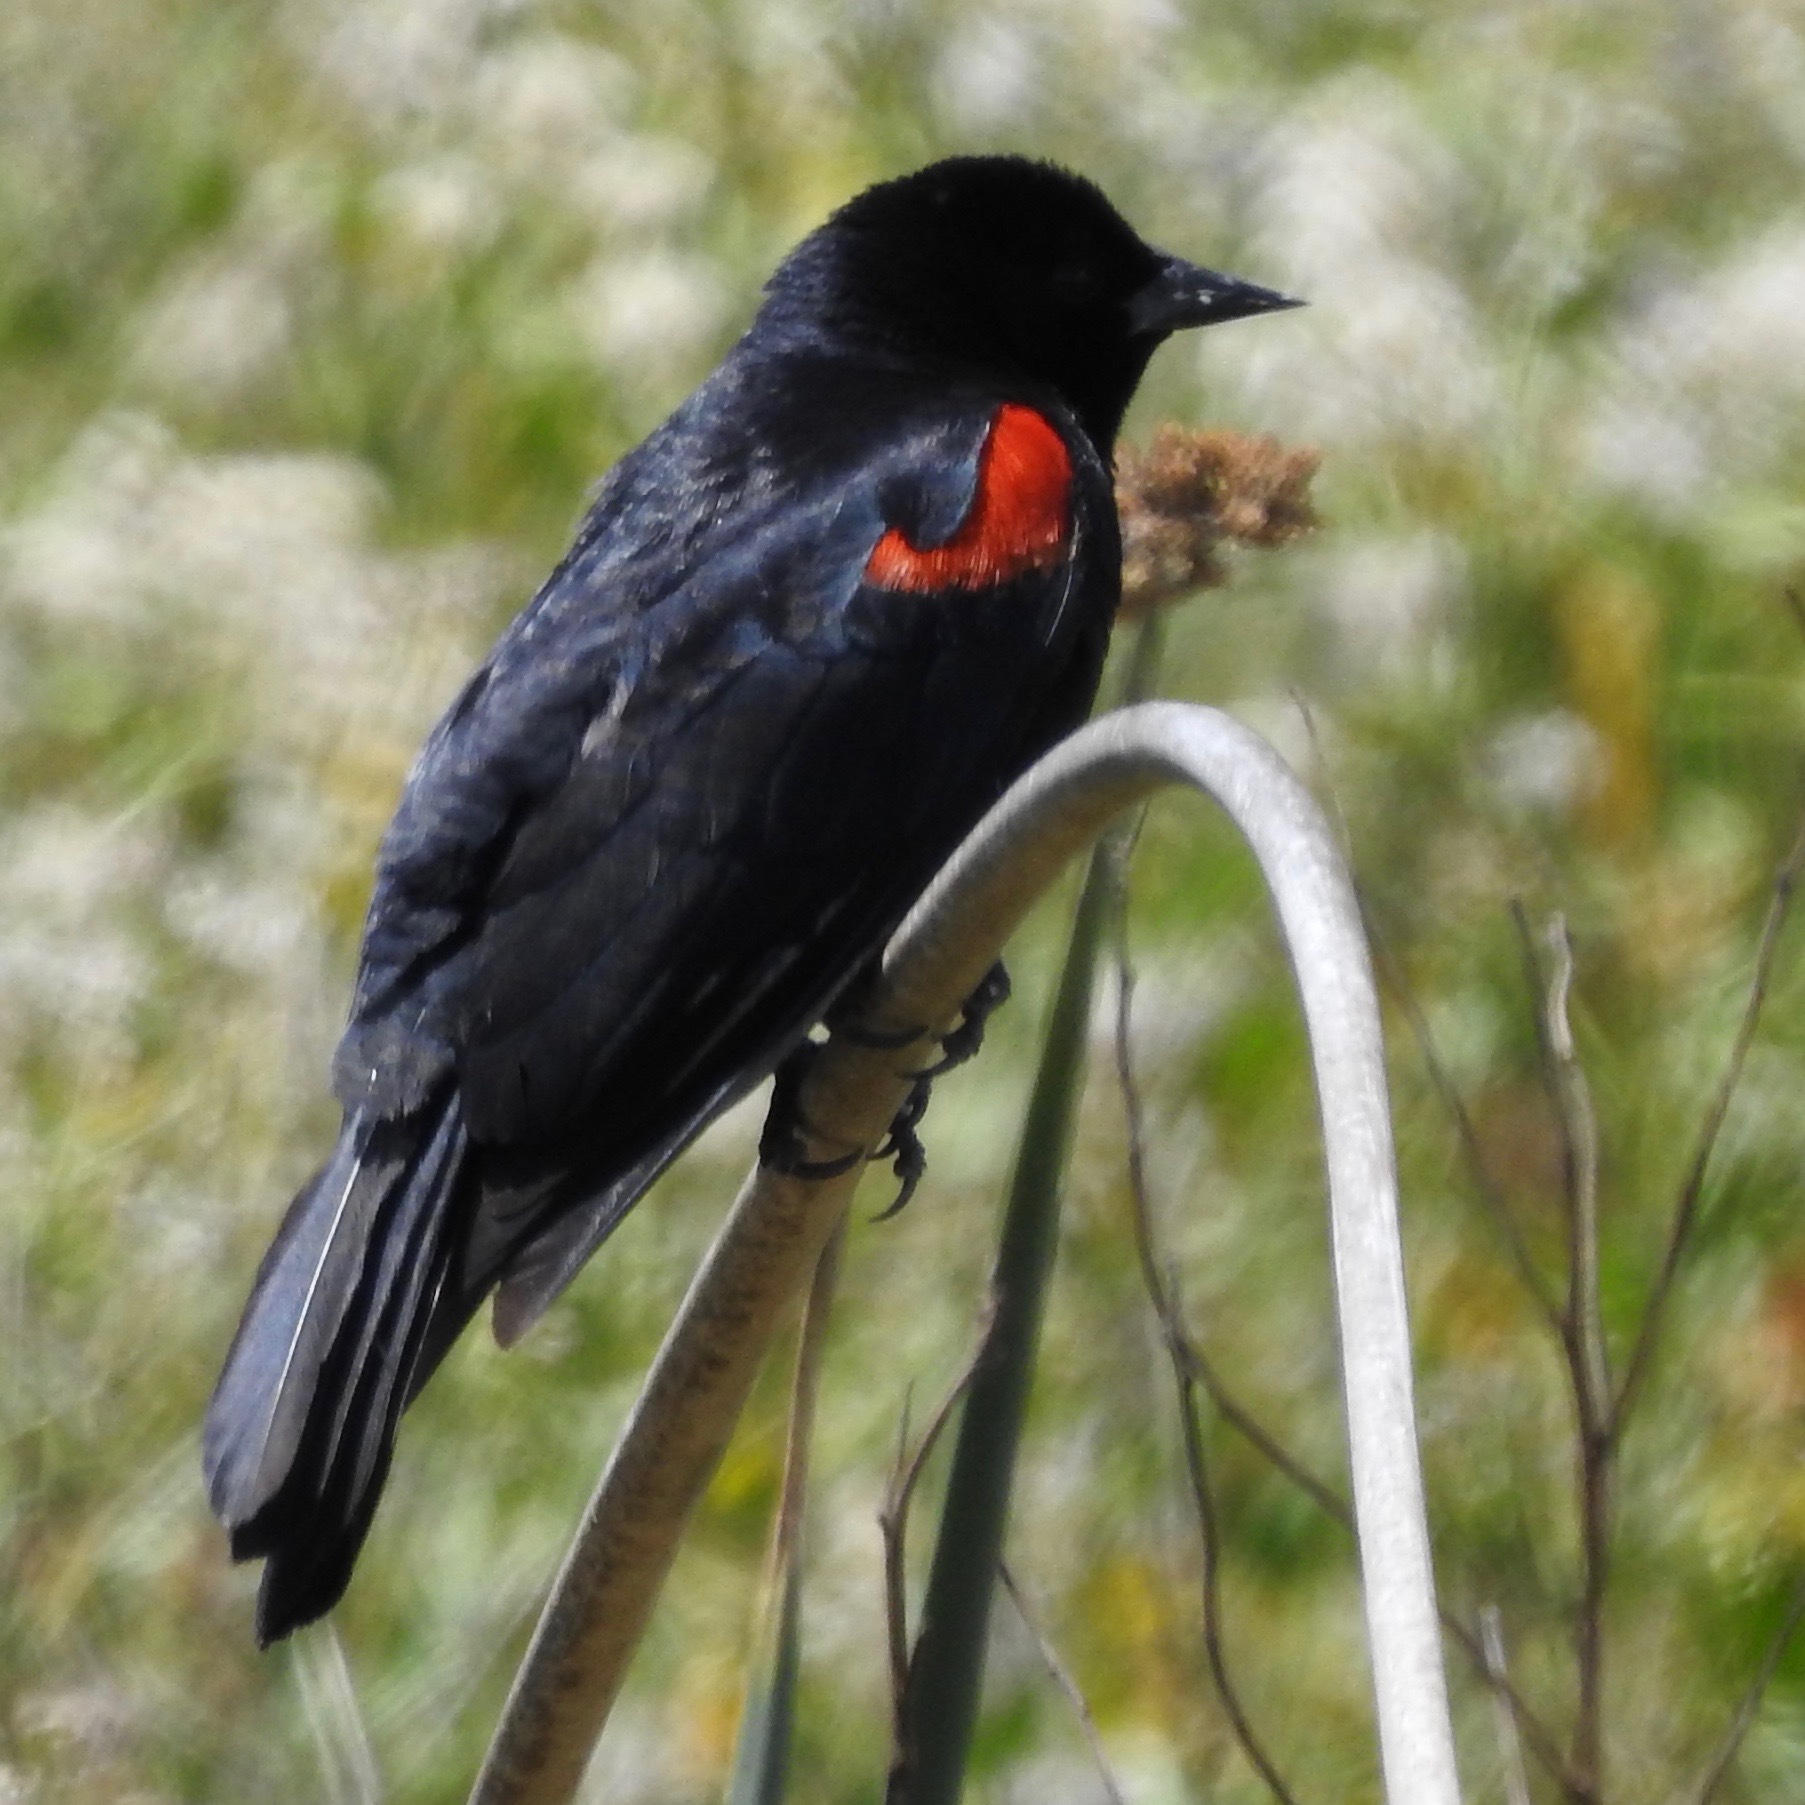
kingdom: Animalia
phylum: Chordata
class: Aves
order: Passeriformes
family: Icteridae
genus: Agelaius
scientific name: Agelaius phoeniceus
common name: Red-winged blackbird
